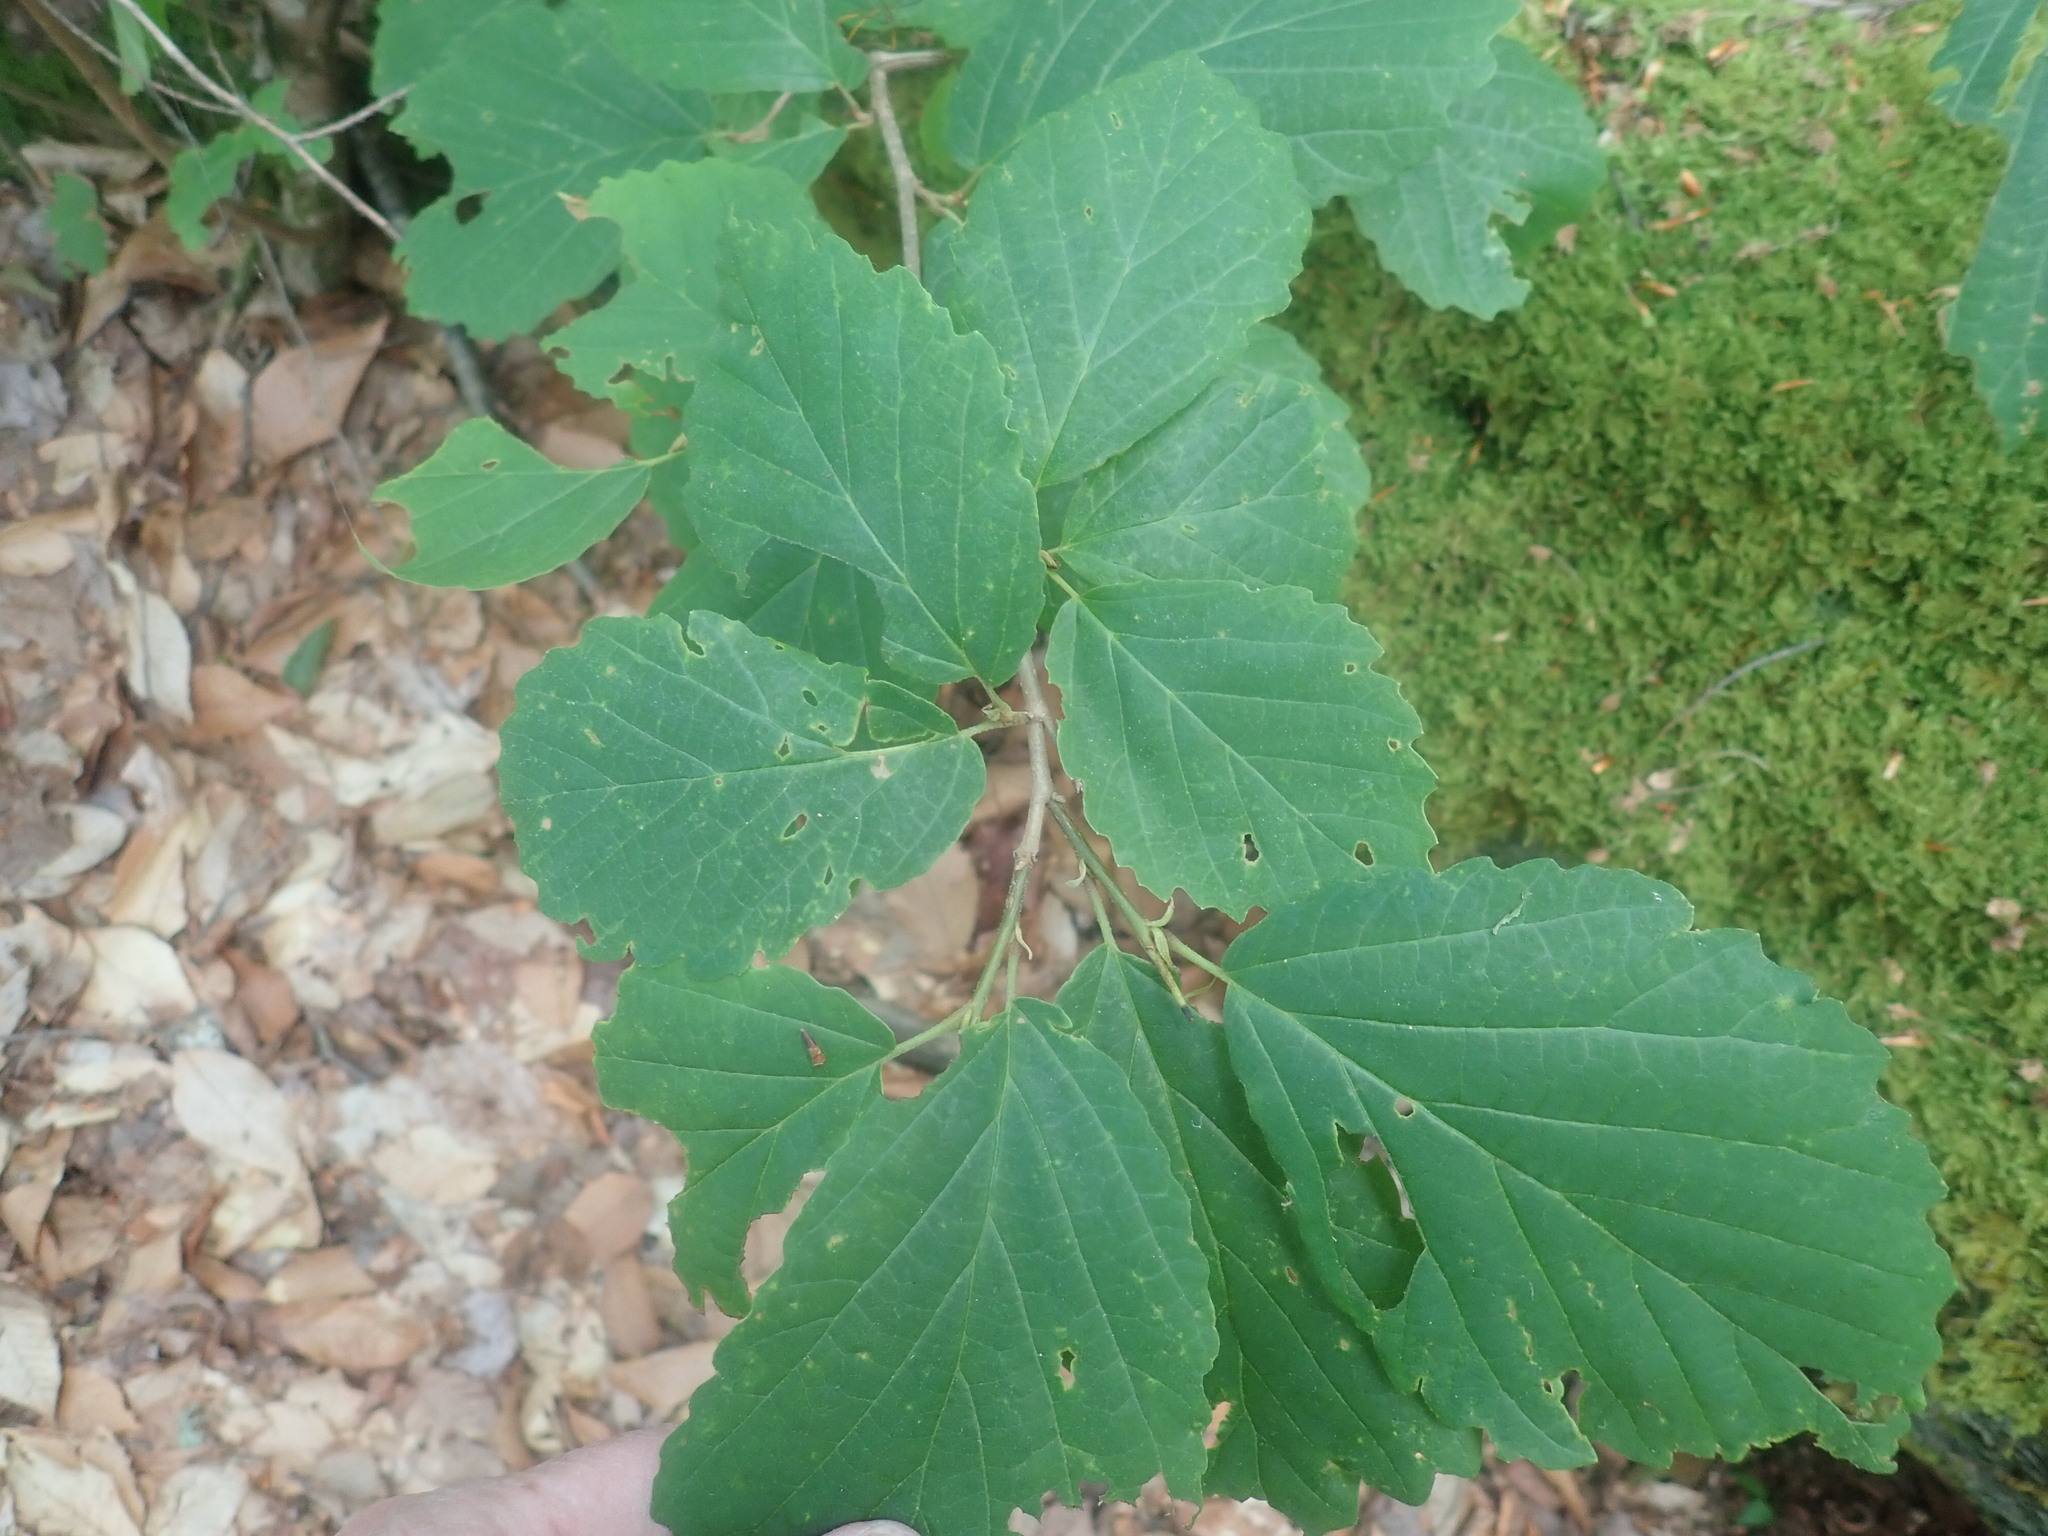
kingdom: Plantae
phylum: Tracheophyta
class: Magnoliopsida
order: Saxifragales
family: Hamamelidaceae
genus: Hamamelis
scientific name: Hamamelis virginiana
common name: Witch-hazel
